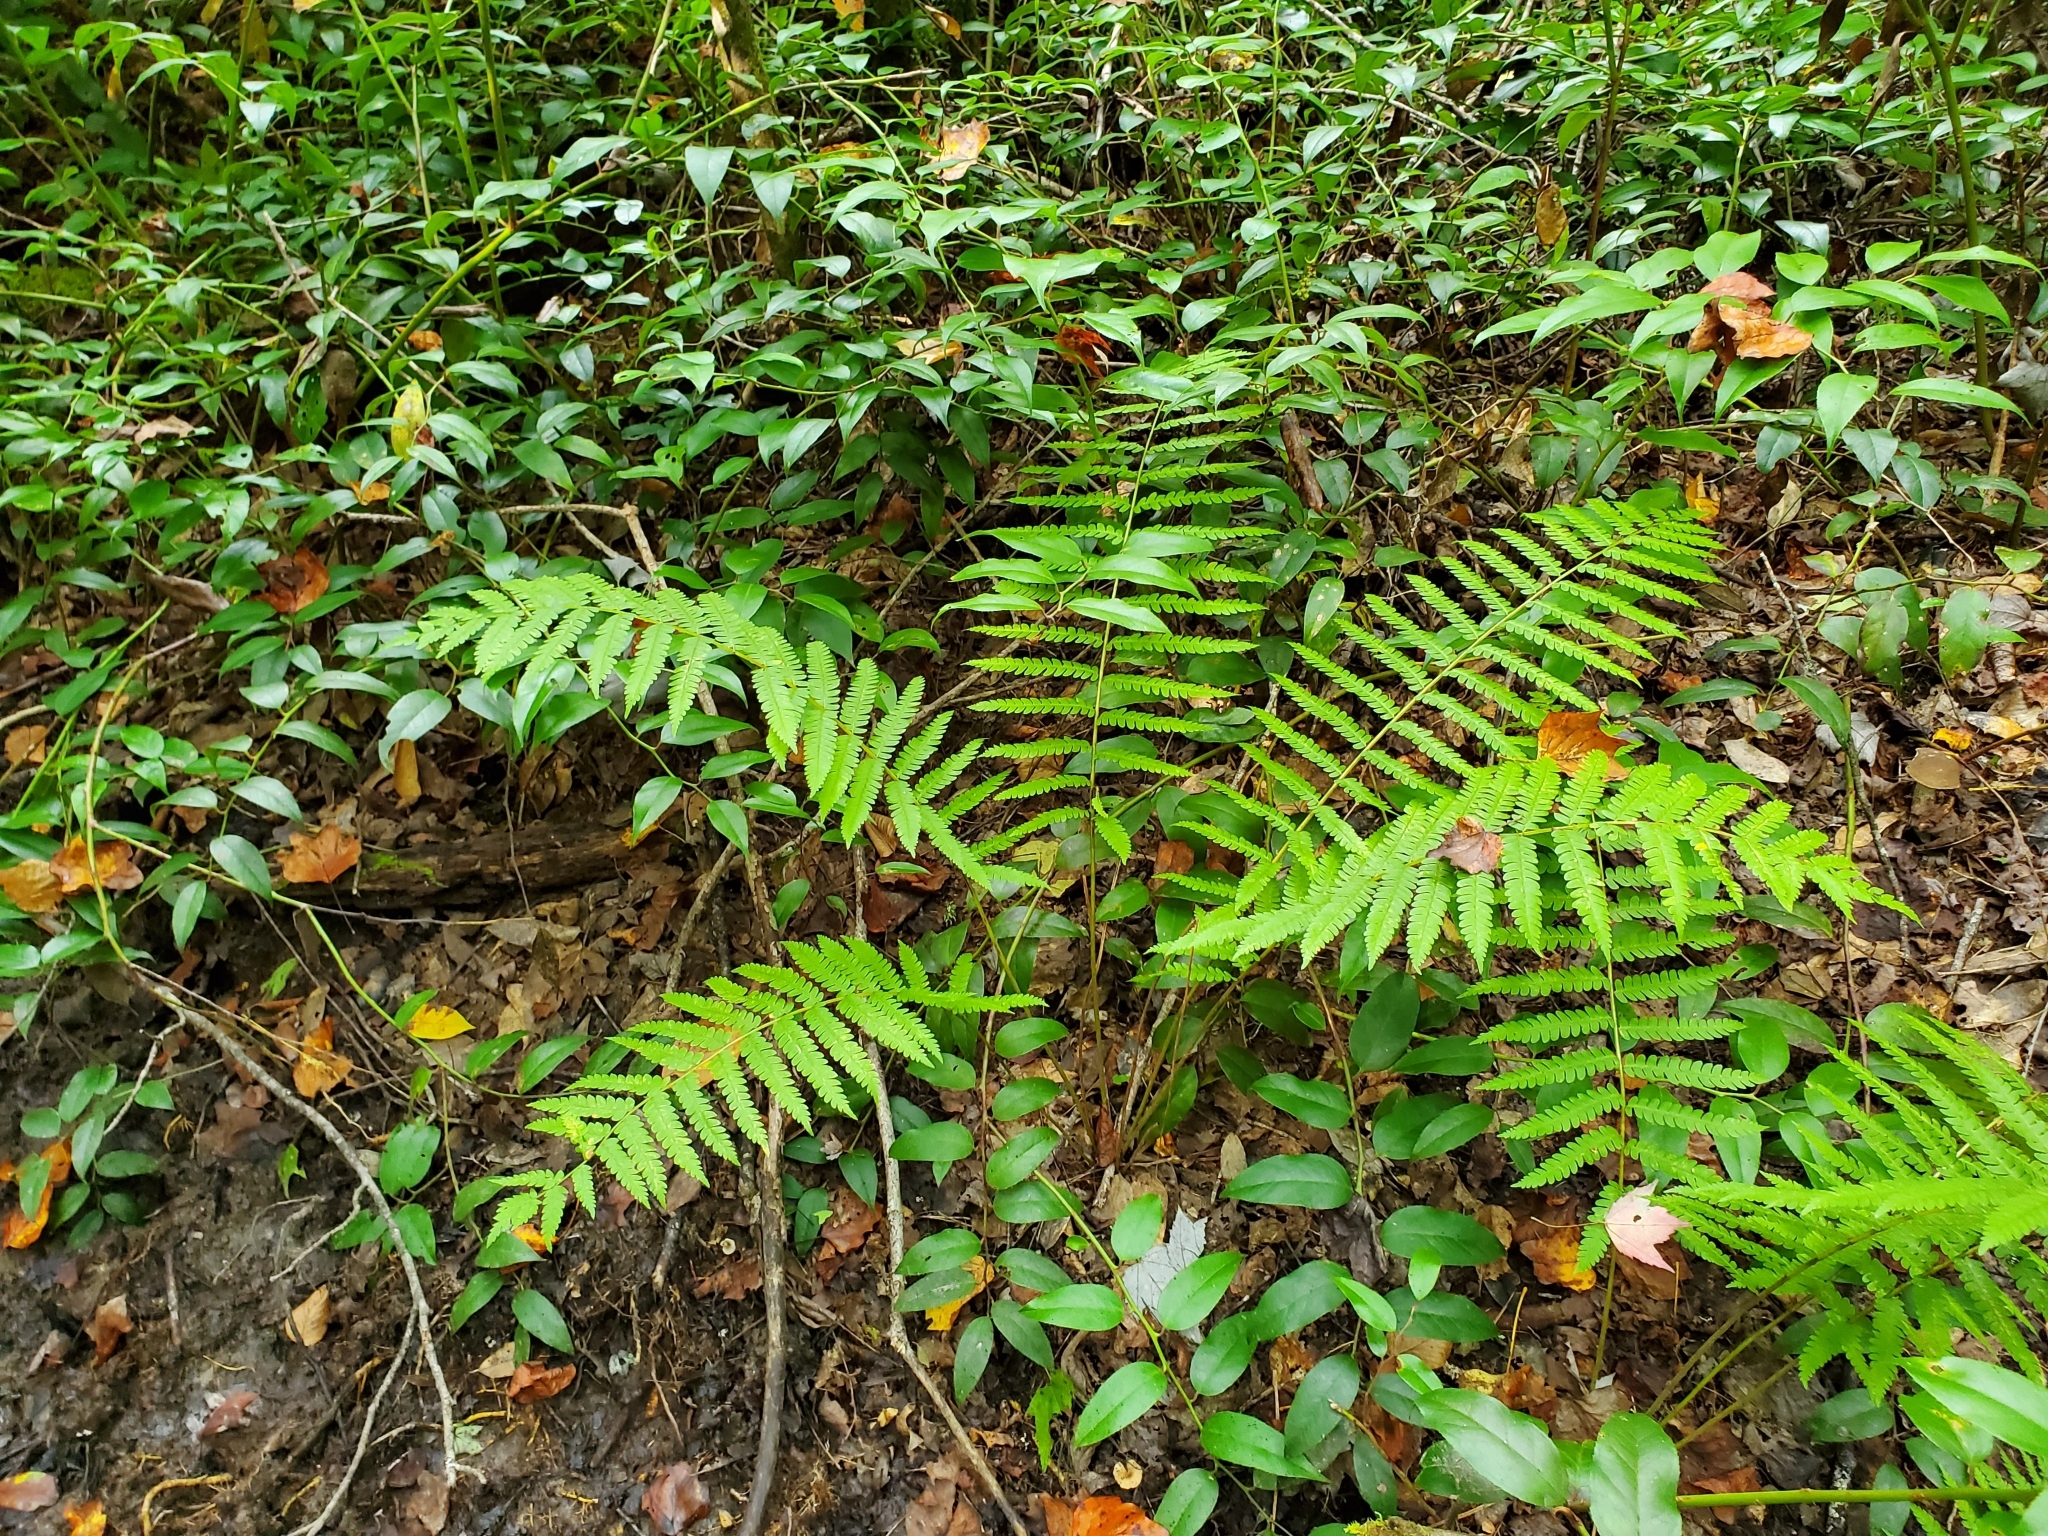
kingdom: Plantae
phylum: Tracheophyta
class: Polypodiopsida
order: Osmundales
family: Osmundaceae
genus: Osmundastrum
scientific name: Osmundastrum cinnamomeum
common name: Cinnamon fern
